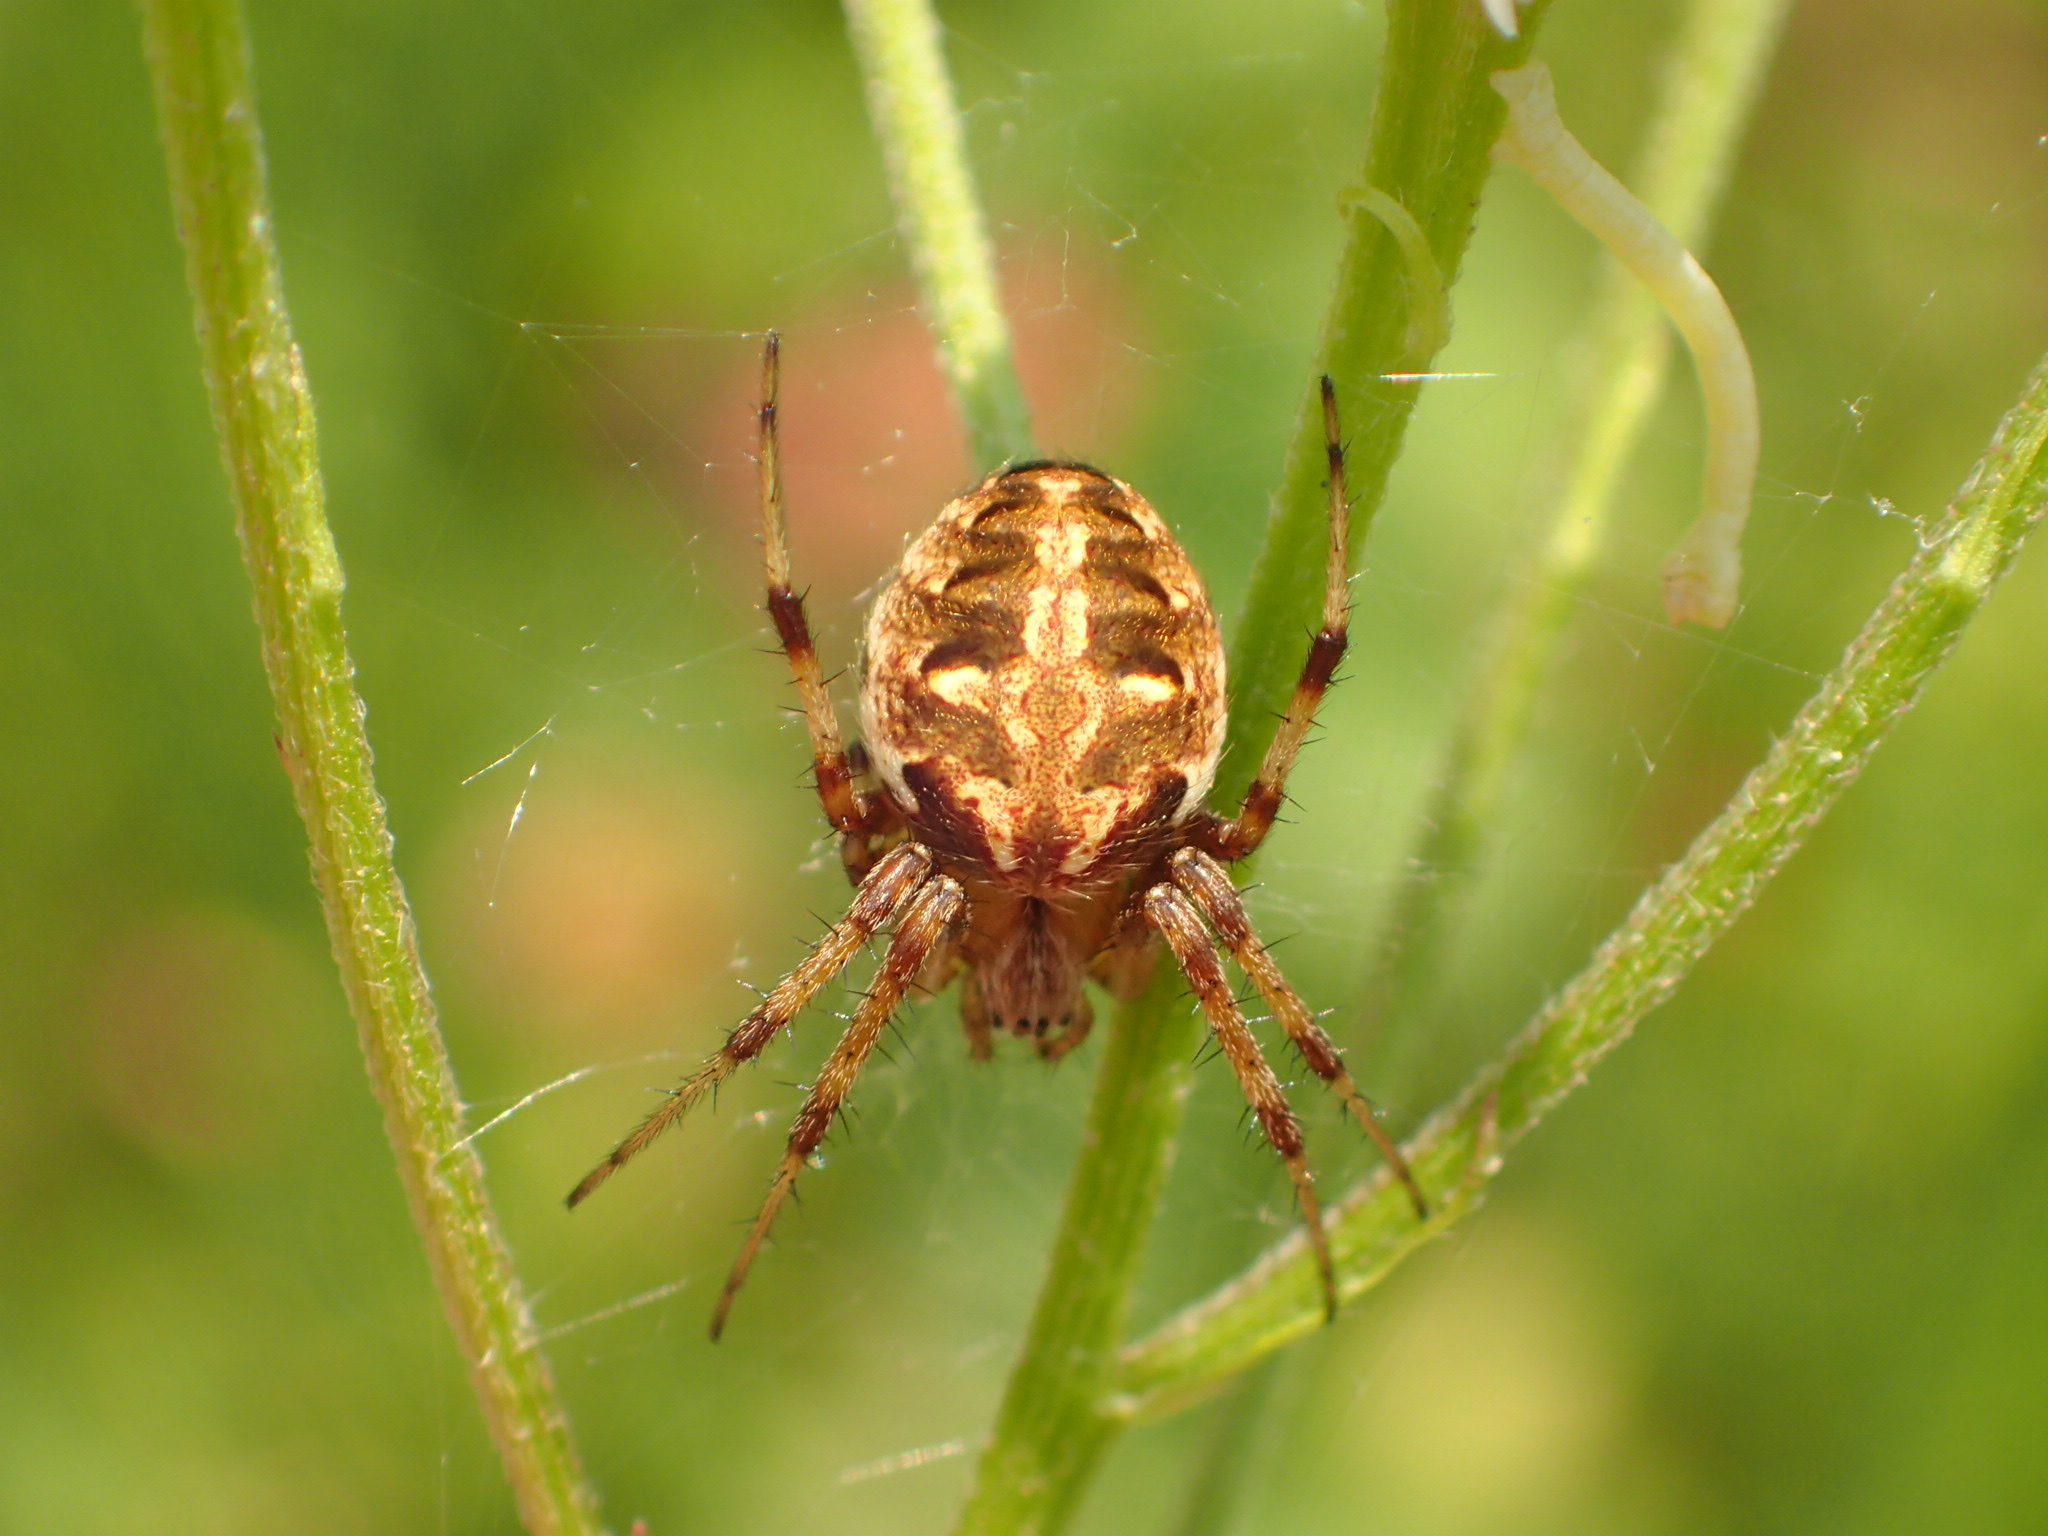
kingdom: Animalia
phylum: Arthropoda
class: Arachnida
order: Araneae
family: Araneidae
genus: Neoscona
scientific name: Neoscona arabesca
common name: Orb weavers
